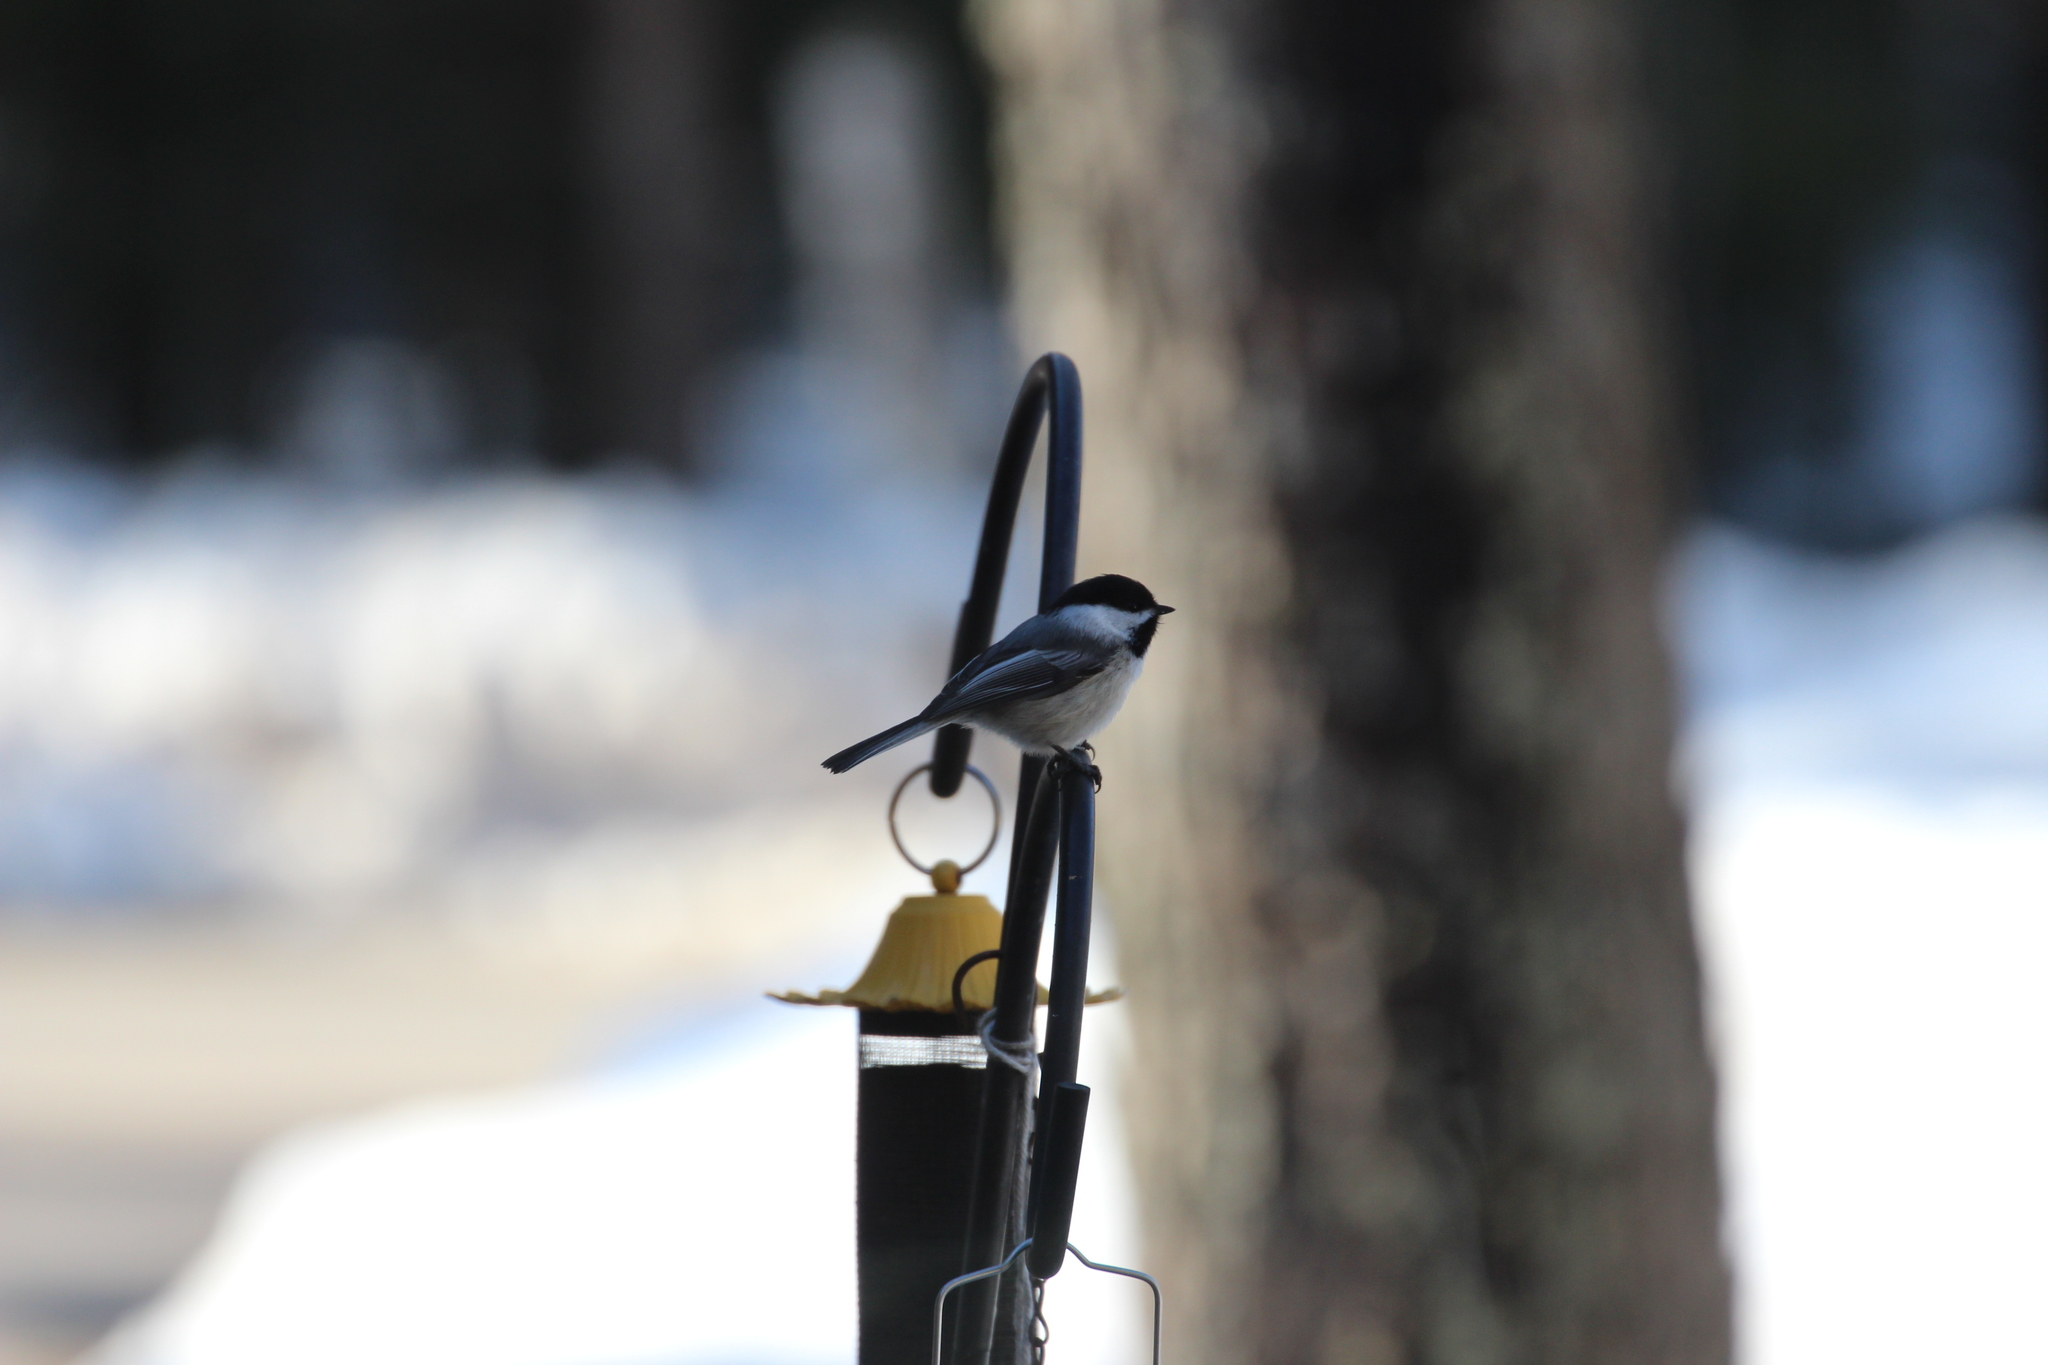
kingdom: Animalia
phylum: Chordata
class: Aves
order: Passeriformes
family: Paridae
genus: Poecile
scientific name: Poecile atricapillus
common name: Black-capped chickadee
